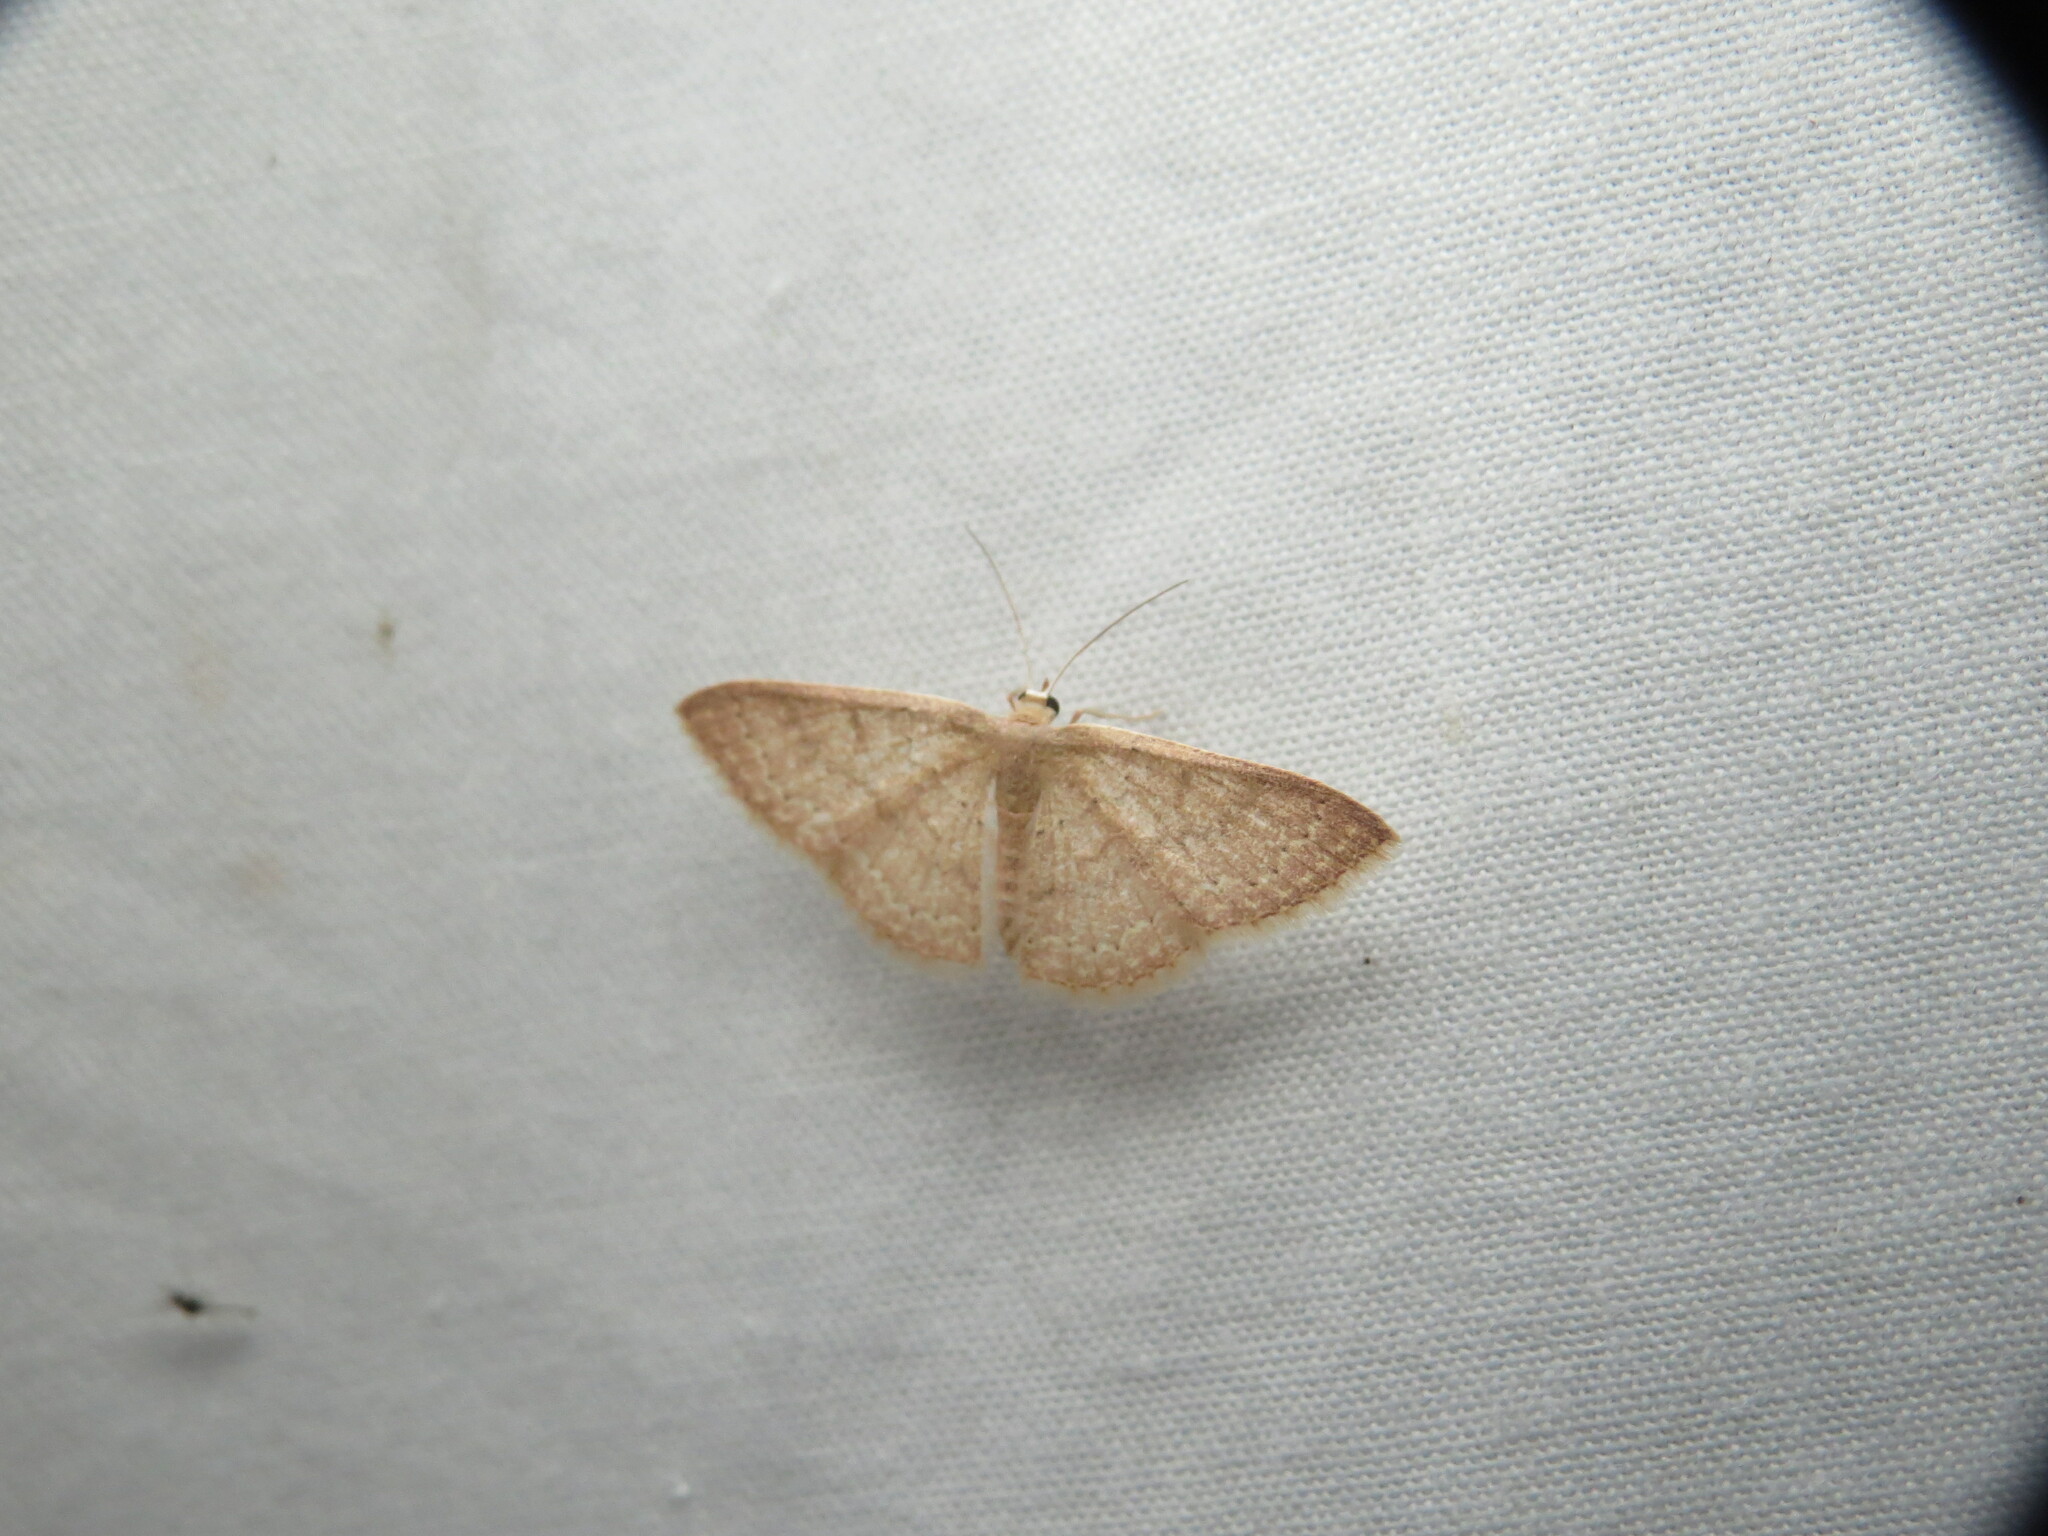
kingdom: Animalia
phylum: Arthropoda
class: Insecta
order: Lepidoptera
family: Geometridae
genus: Pleuroprucha
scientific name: Pleuroprucha insulsaria
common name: Common tan wave
